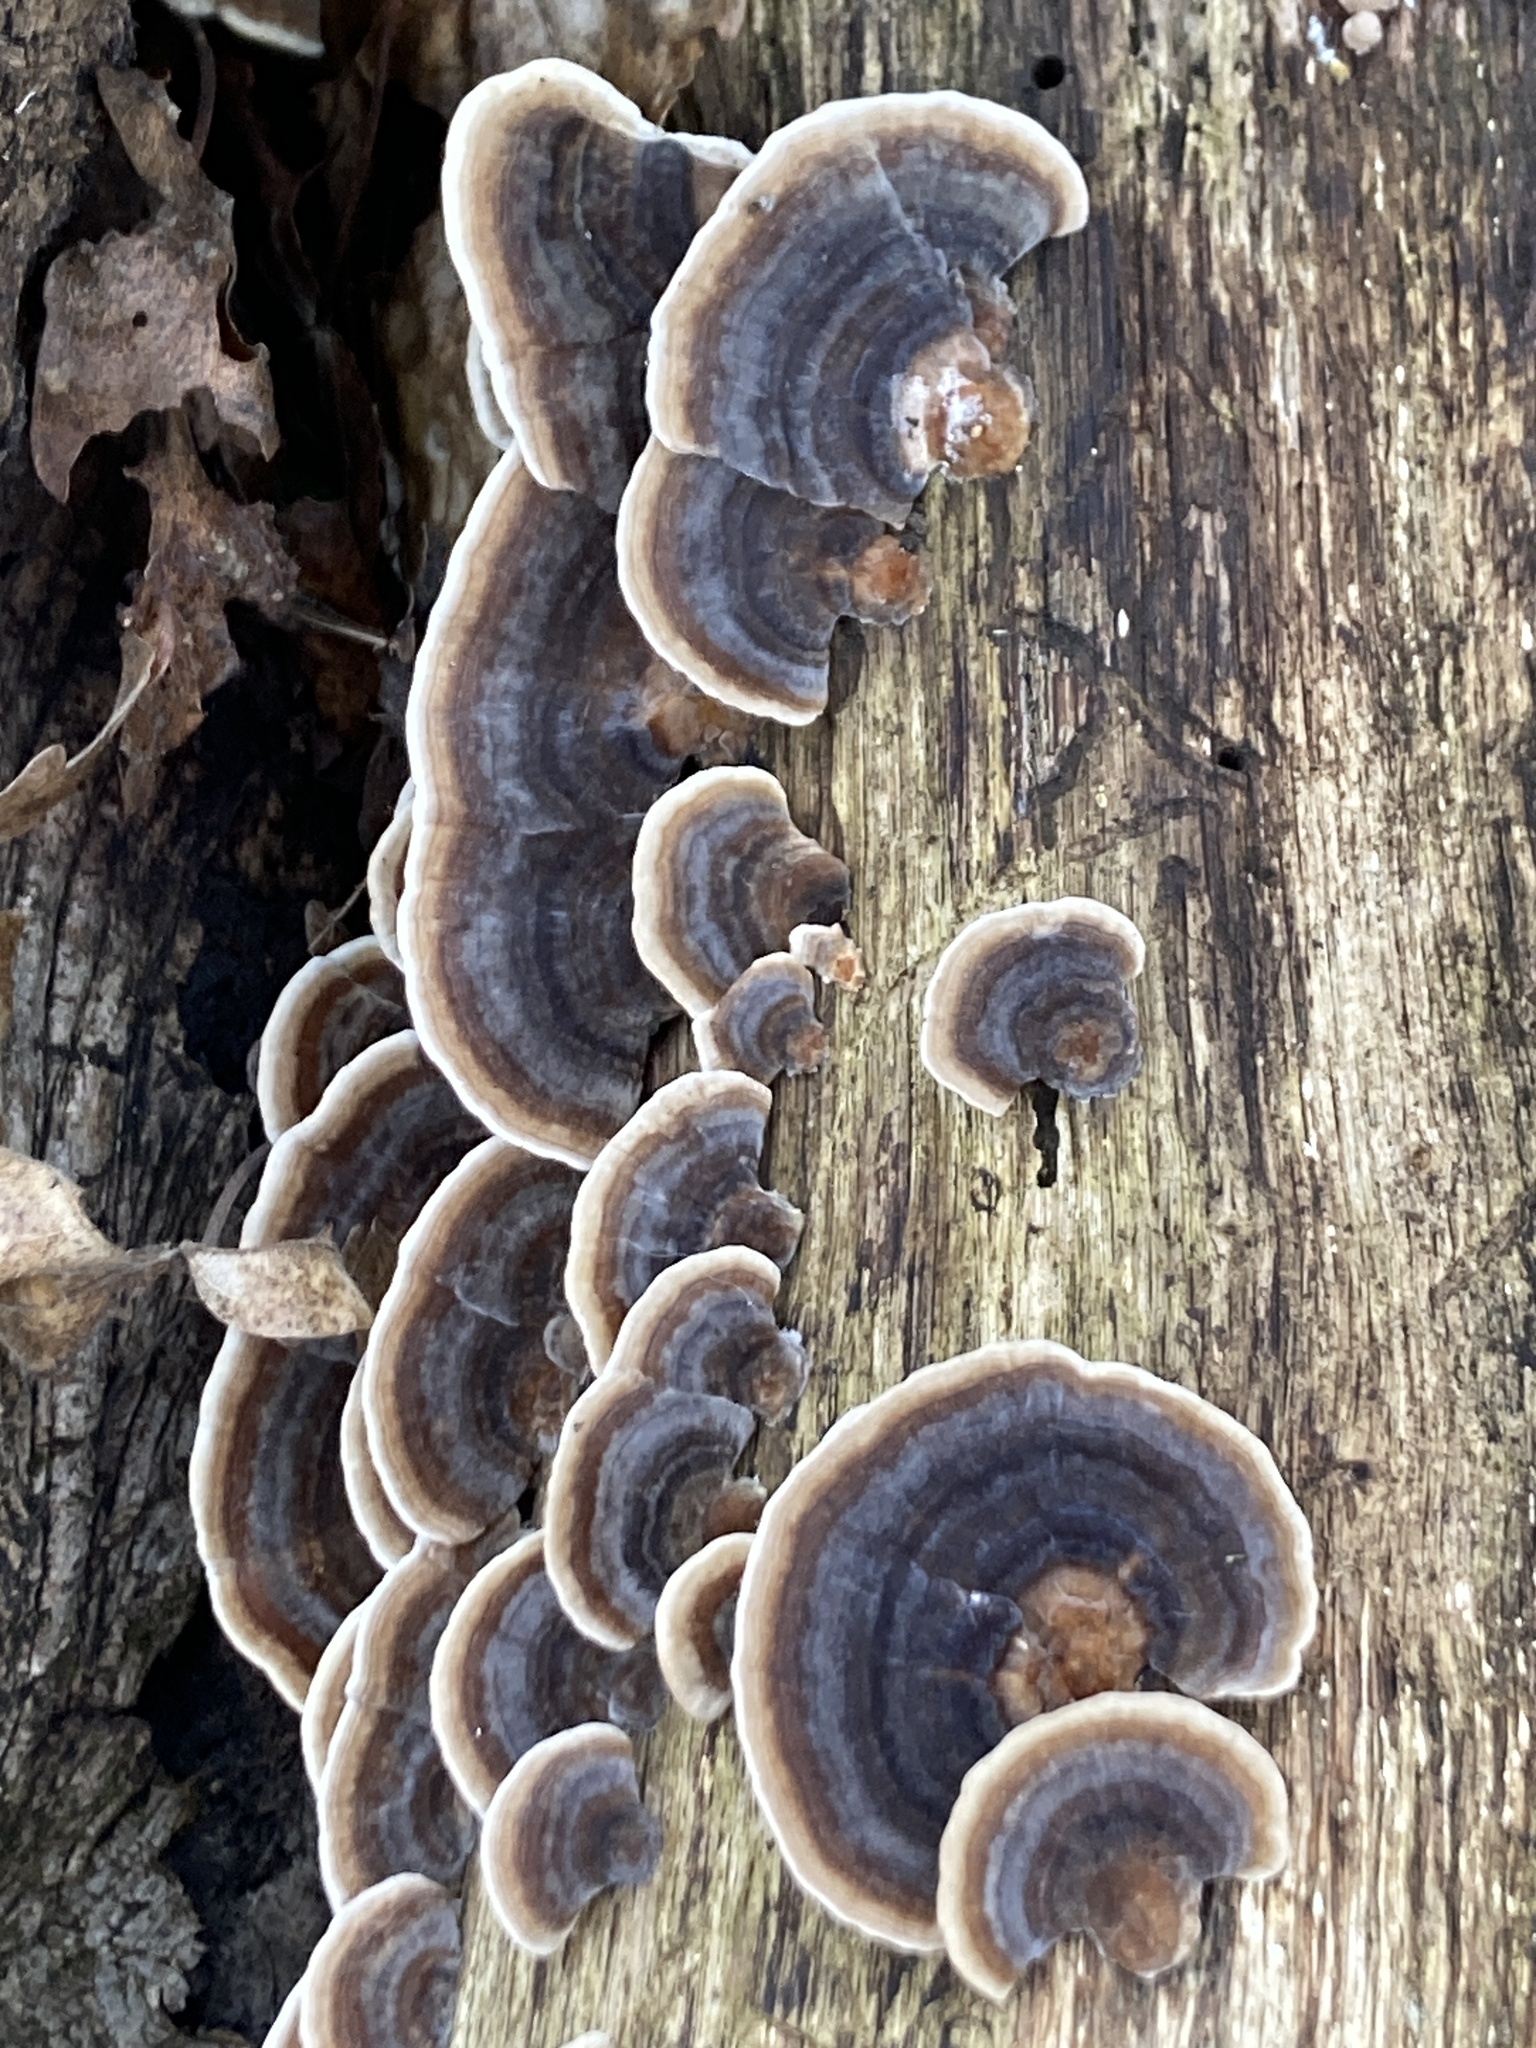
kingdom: Fungi
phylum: Basidiomycota
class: Agaricomycetes
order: Polyporales
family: Polyporaceae
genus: Trametes
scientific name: Trametes versicolor
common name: Turkeytail
